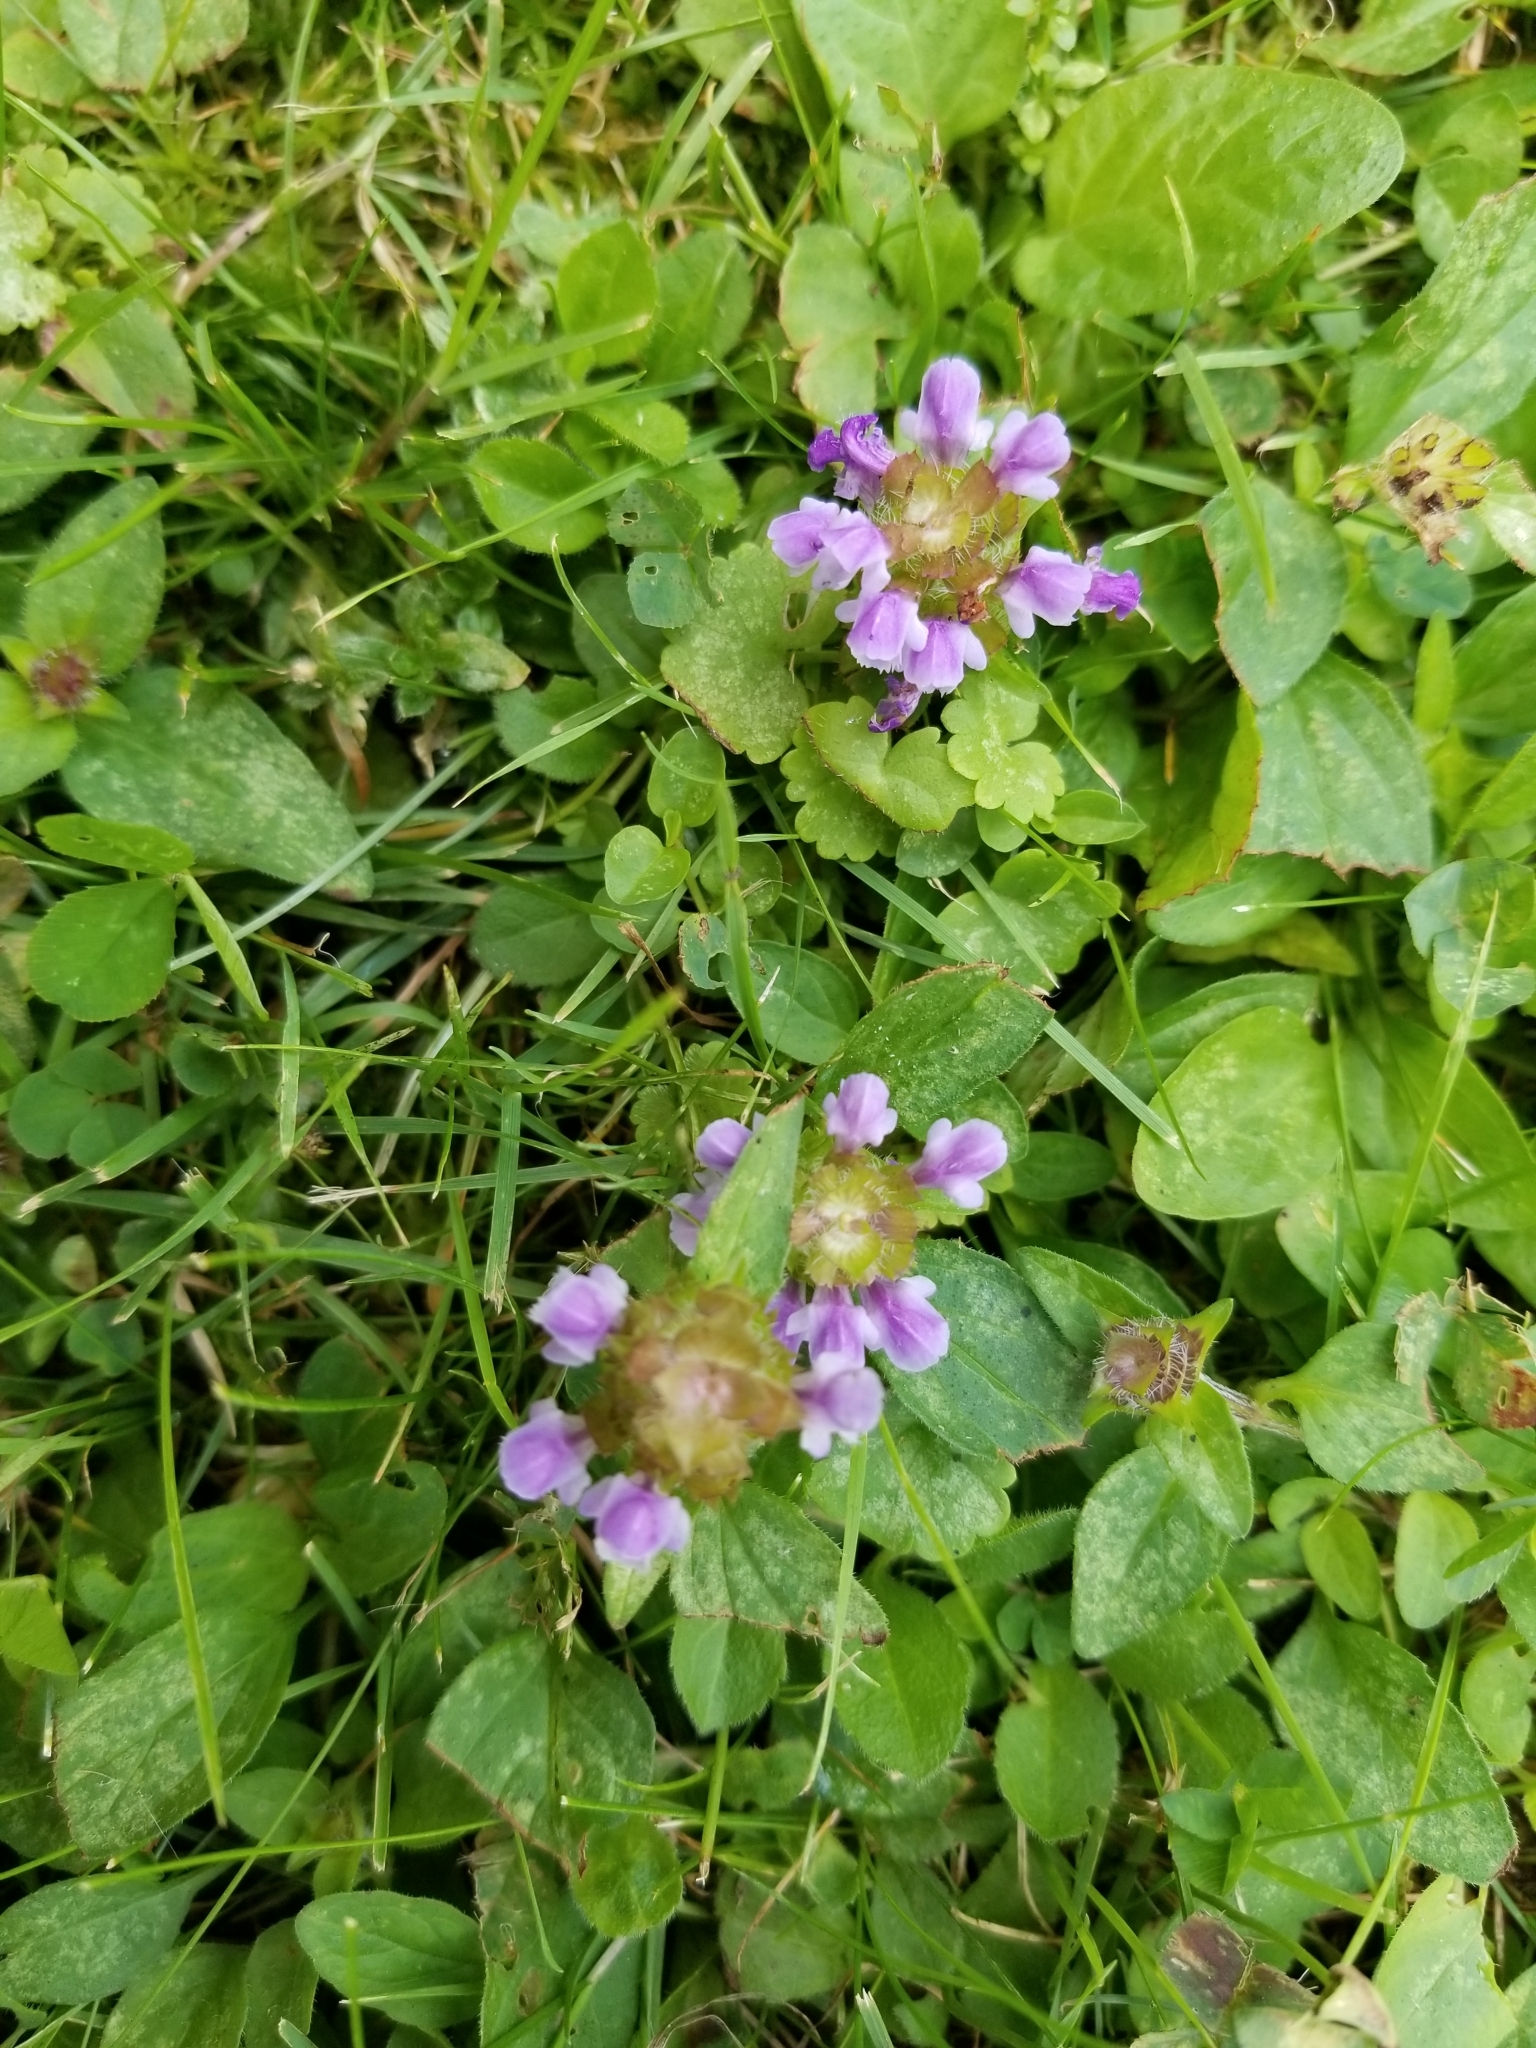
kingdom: Plantae
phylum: Tracheophyta
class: Magnoliopsida
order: Lamiales
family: Lamiaceae
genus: Prunella
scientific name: Prunella vulgaris
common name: Heal-all
